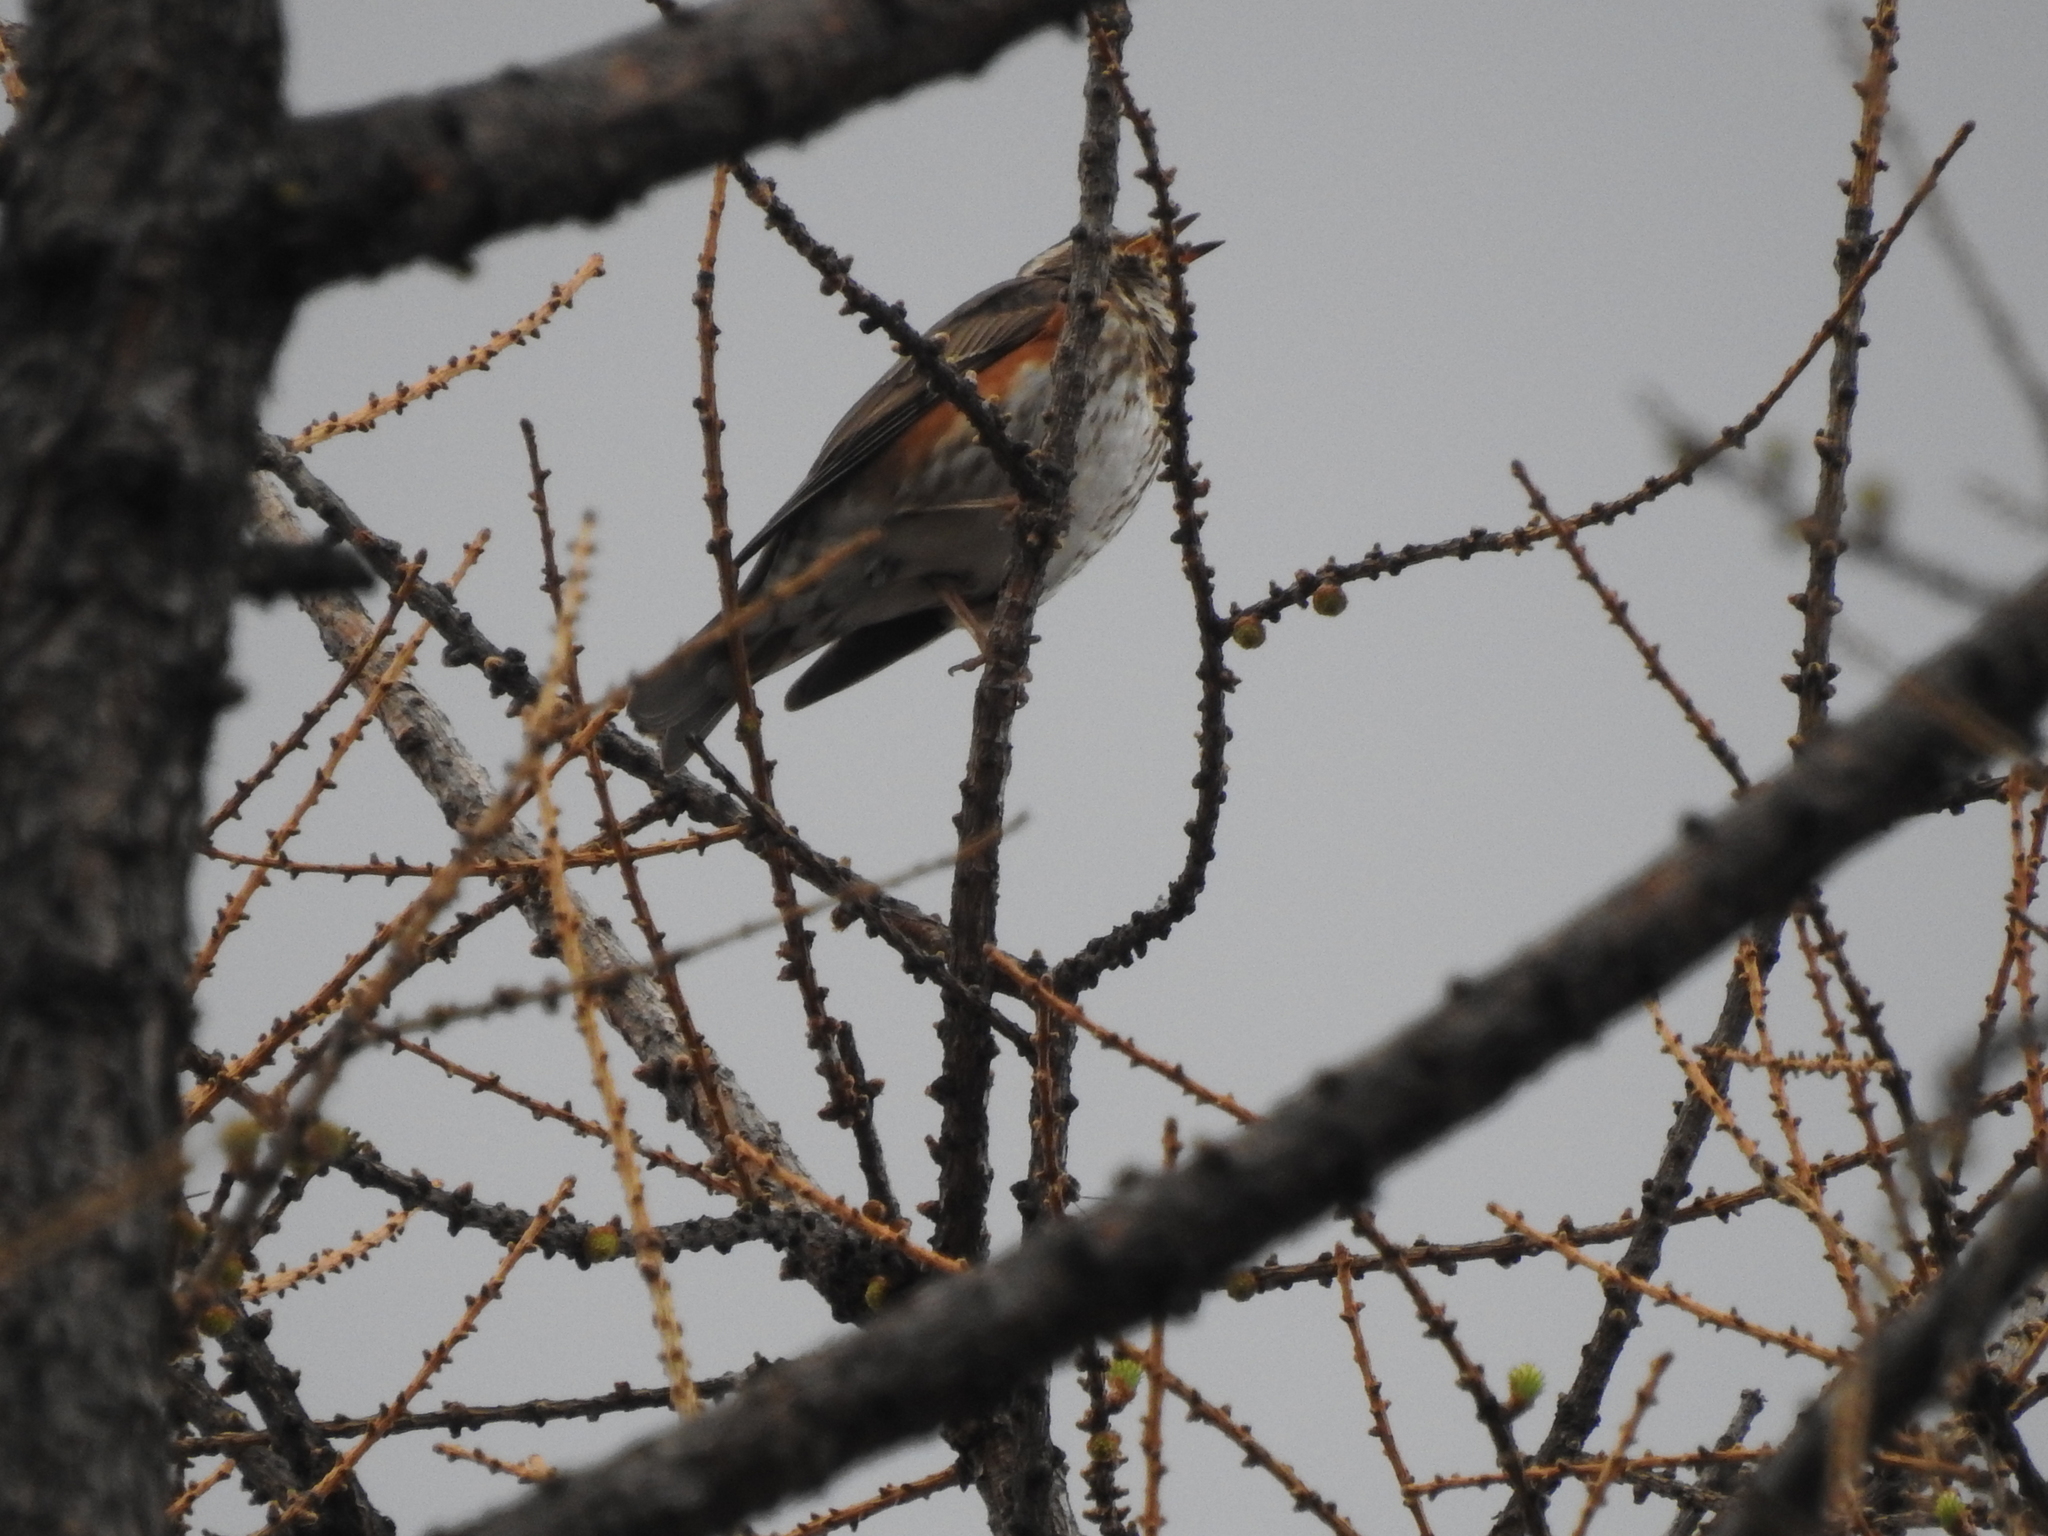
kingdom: Animalia
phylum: Chordata
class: Aves
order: Passeriformes
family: Turdidae
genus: Turdus
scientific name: Turdus iliacus
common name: Redwing
